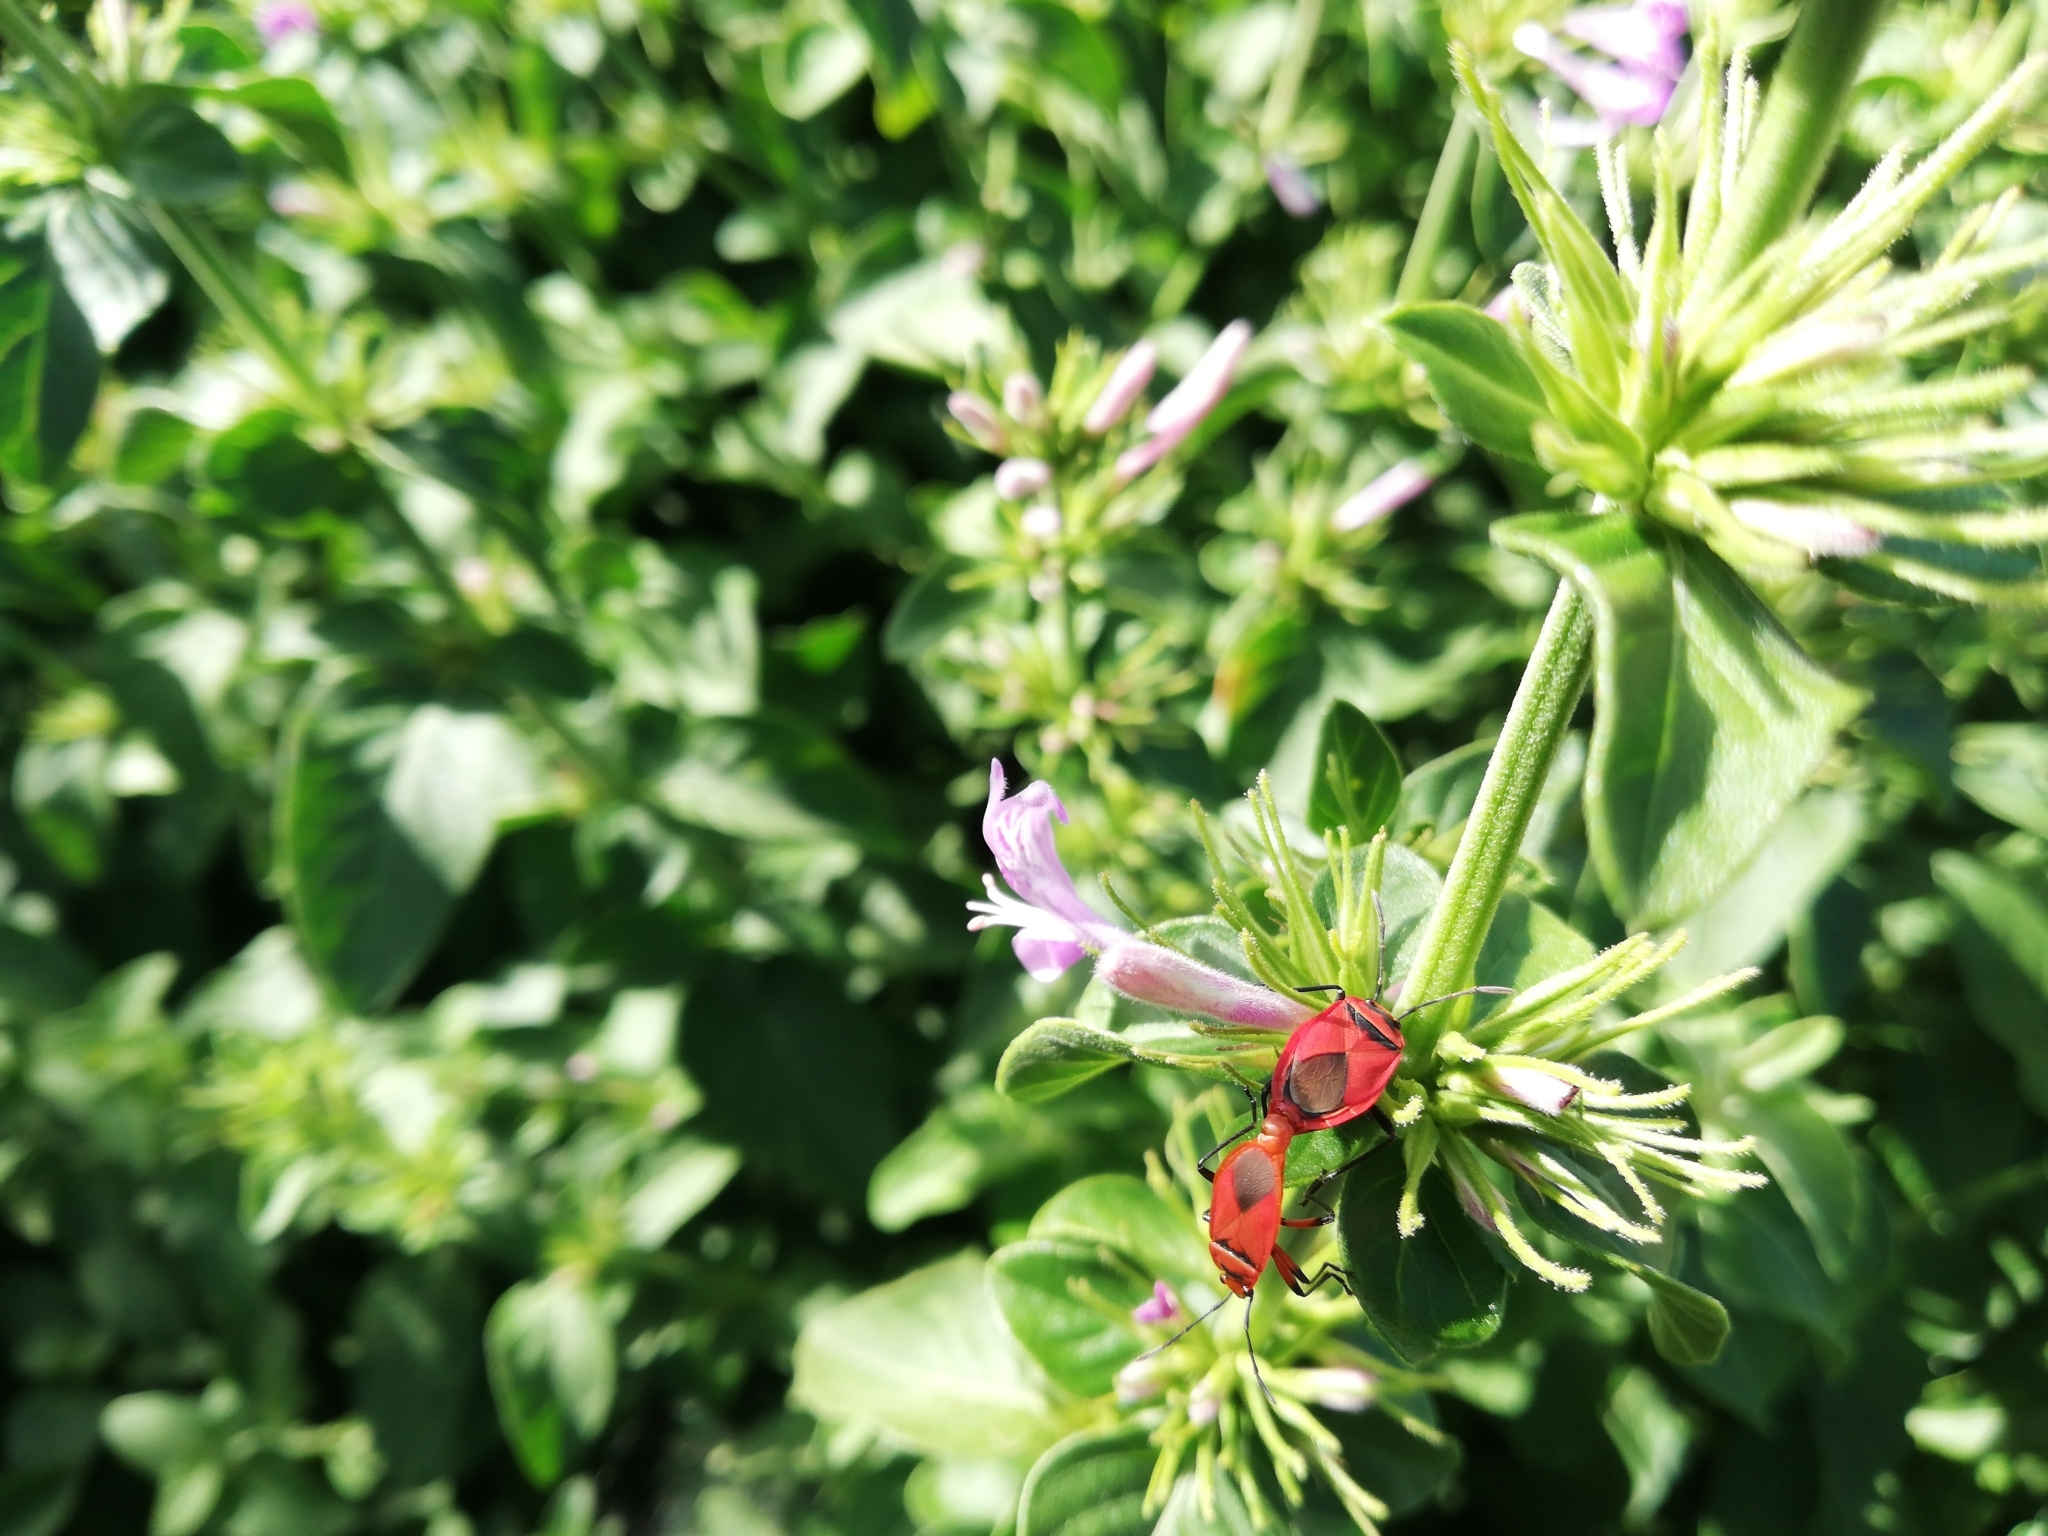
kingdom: Animalia
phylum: Arthropoda
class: Insecta
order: Hemiptera
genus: Cenaeus
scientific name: Cenaeus
